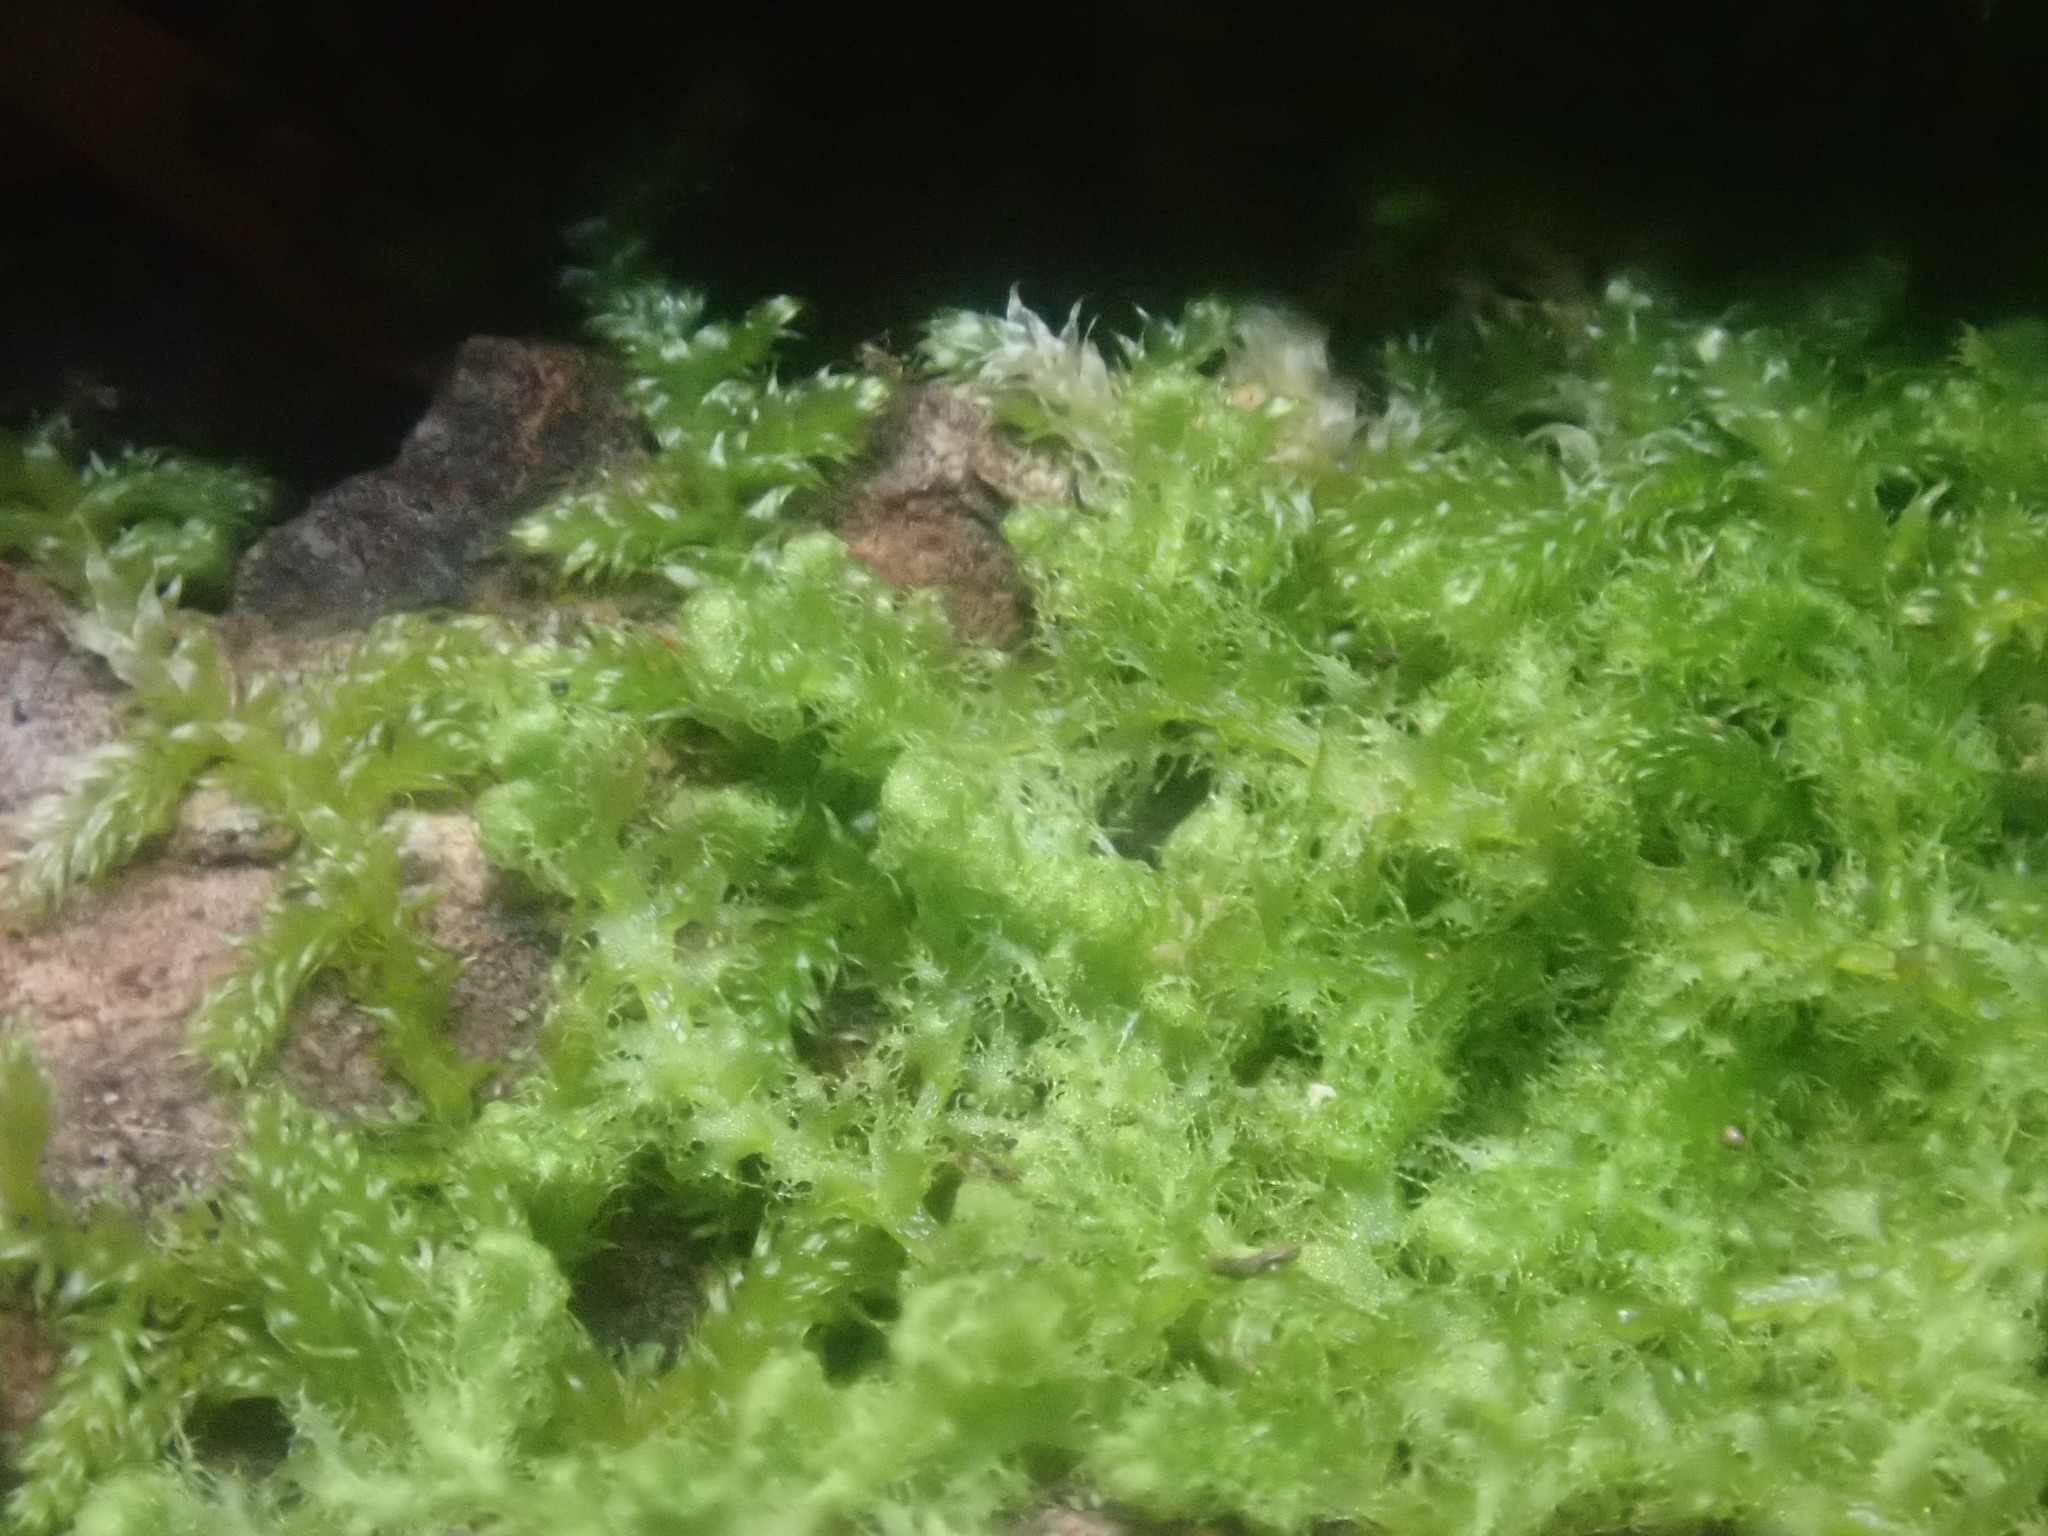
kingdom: Plantae
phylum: Marchantiophyta
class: Jungermanniopsida
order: Ptilidiales
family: Ptilidiaceae
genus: Ptilidium
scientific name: Ptilidium pulcherrimum
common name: Tree fringewort
